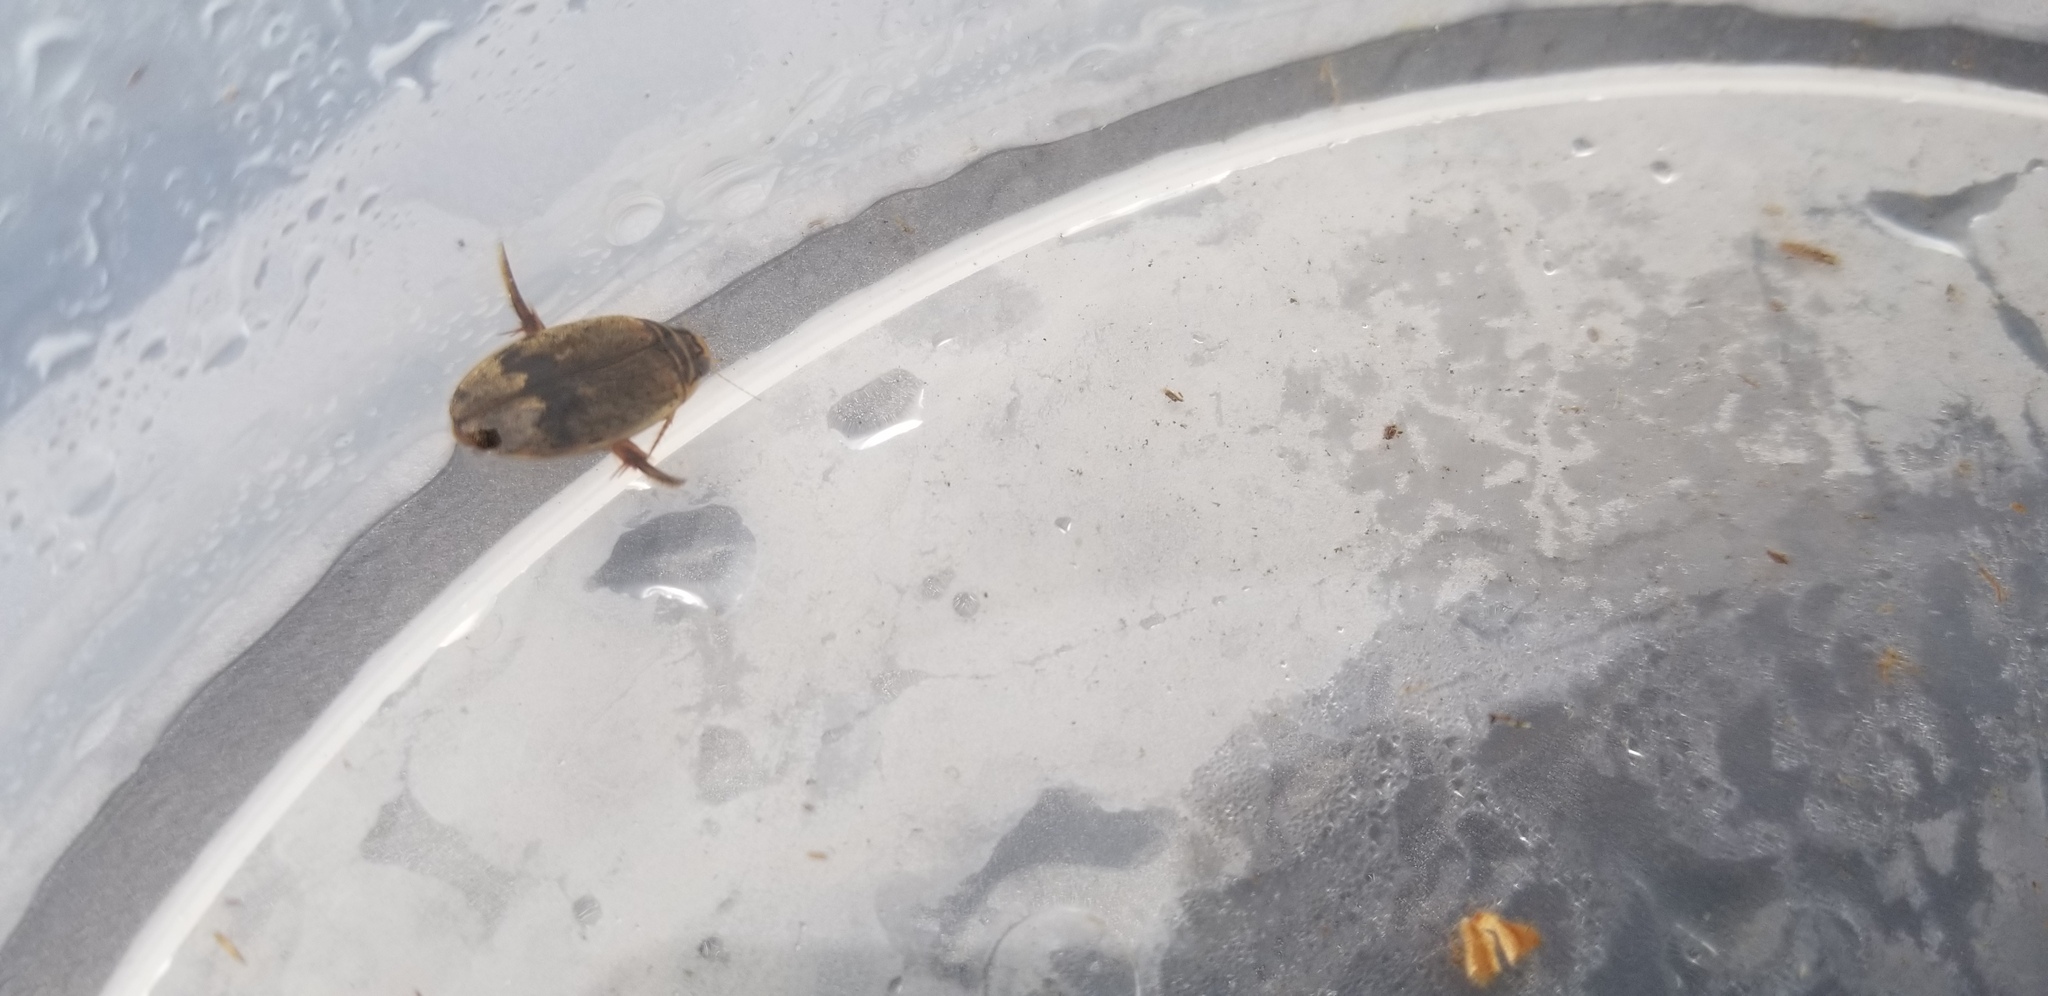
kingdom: Animalia
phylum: Arthropoda
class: Insecta
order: Coleoptera
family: Dytiscidae
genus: Thermonectus
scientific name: Thermonectus nigrofasciatus
